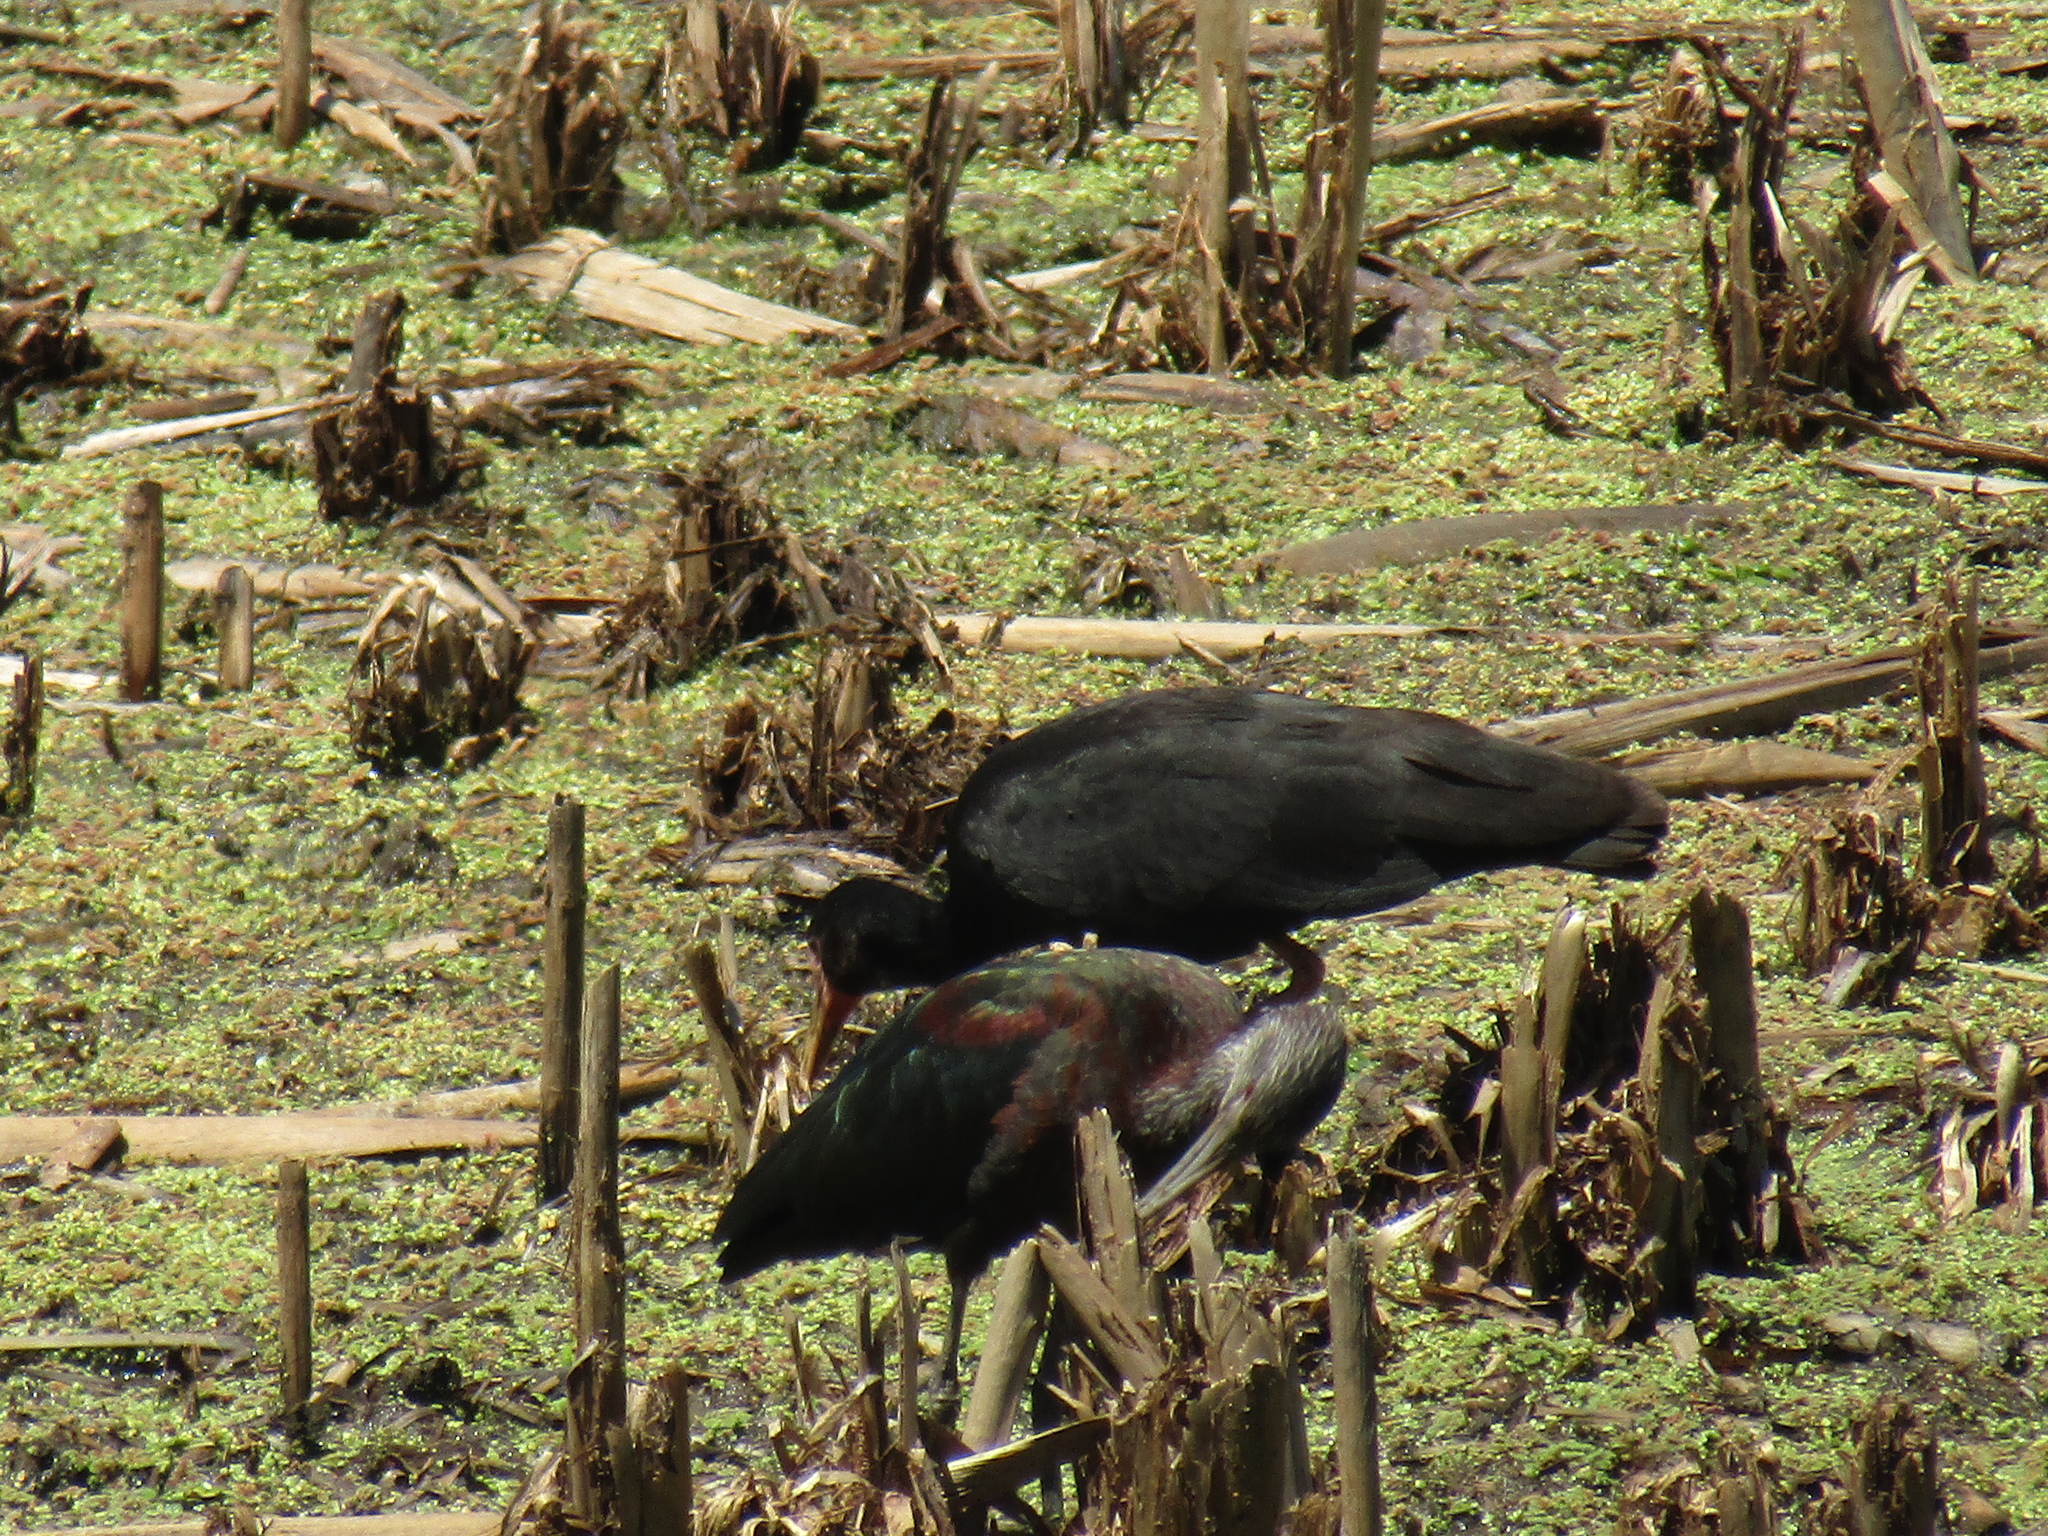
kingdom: Animalia
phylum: Chordata
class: Aves
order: Pelecaniformes
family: Threskiornithidae
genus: Phimosus
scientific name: Phimosus infuscatus
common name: Bare-faced ibis
